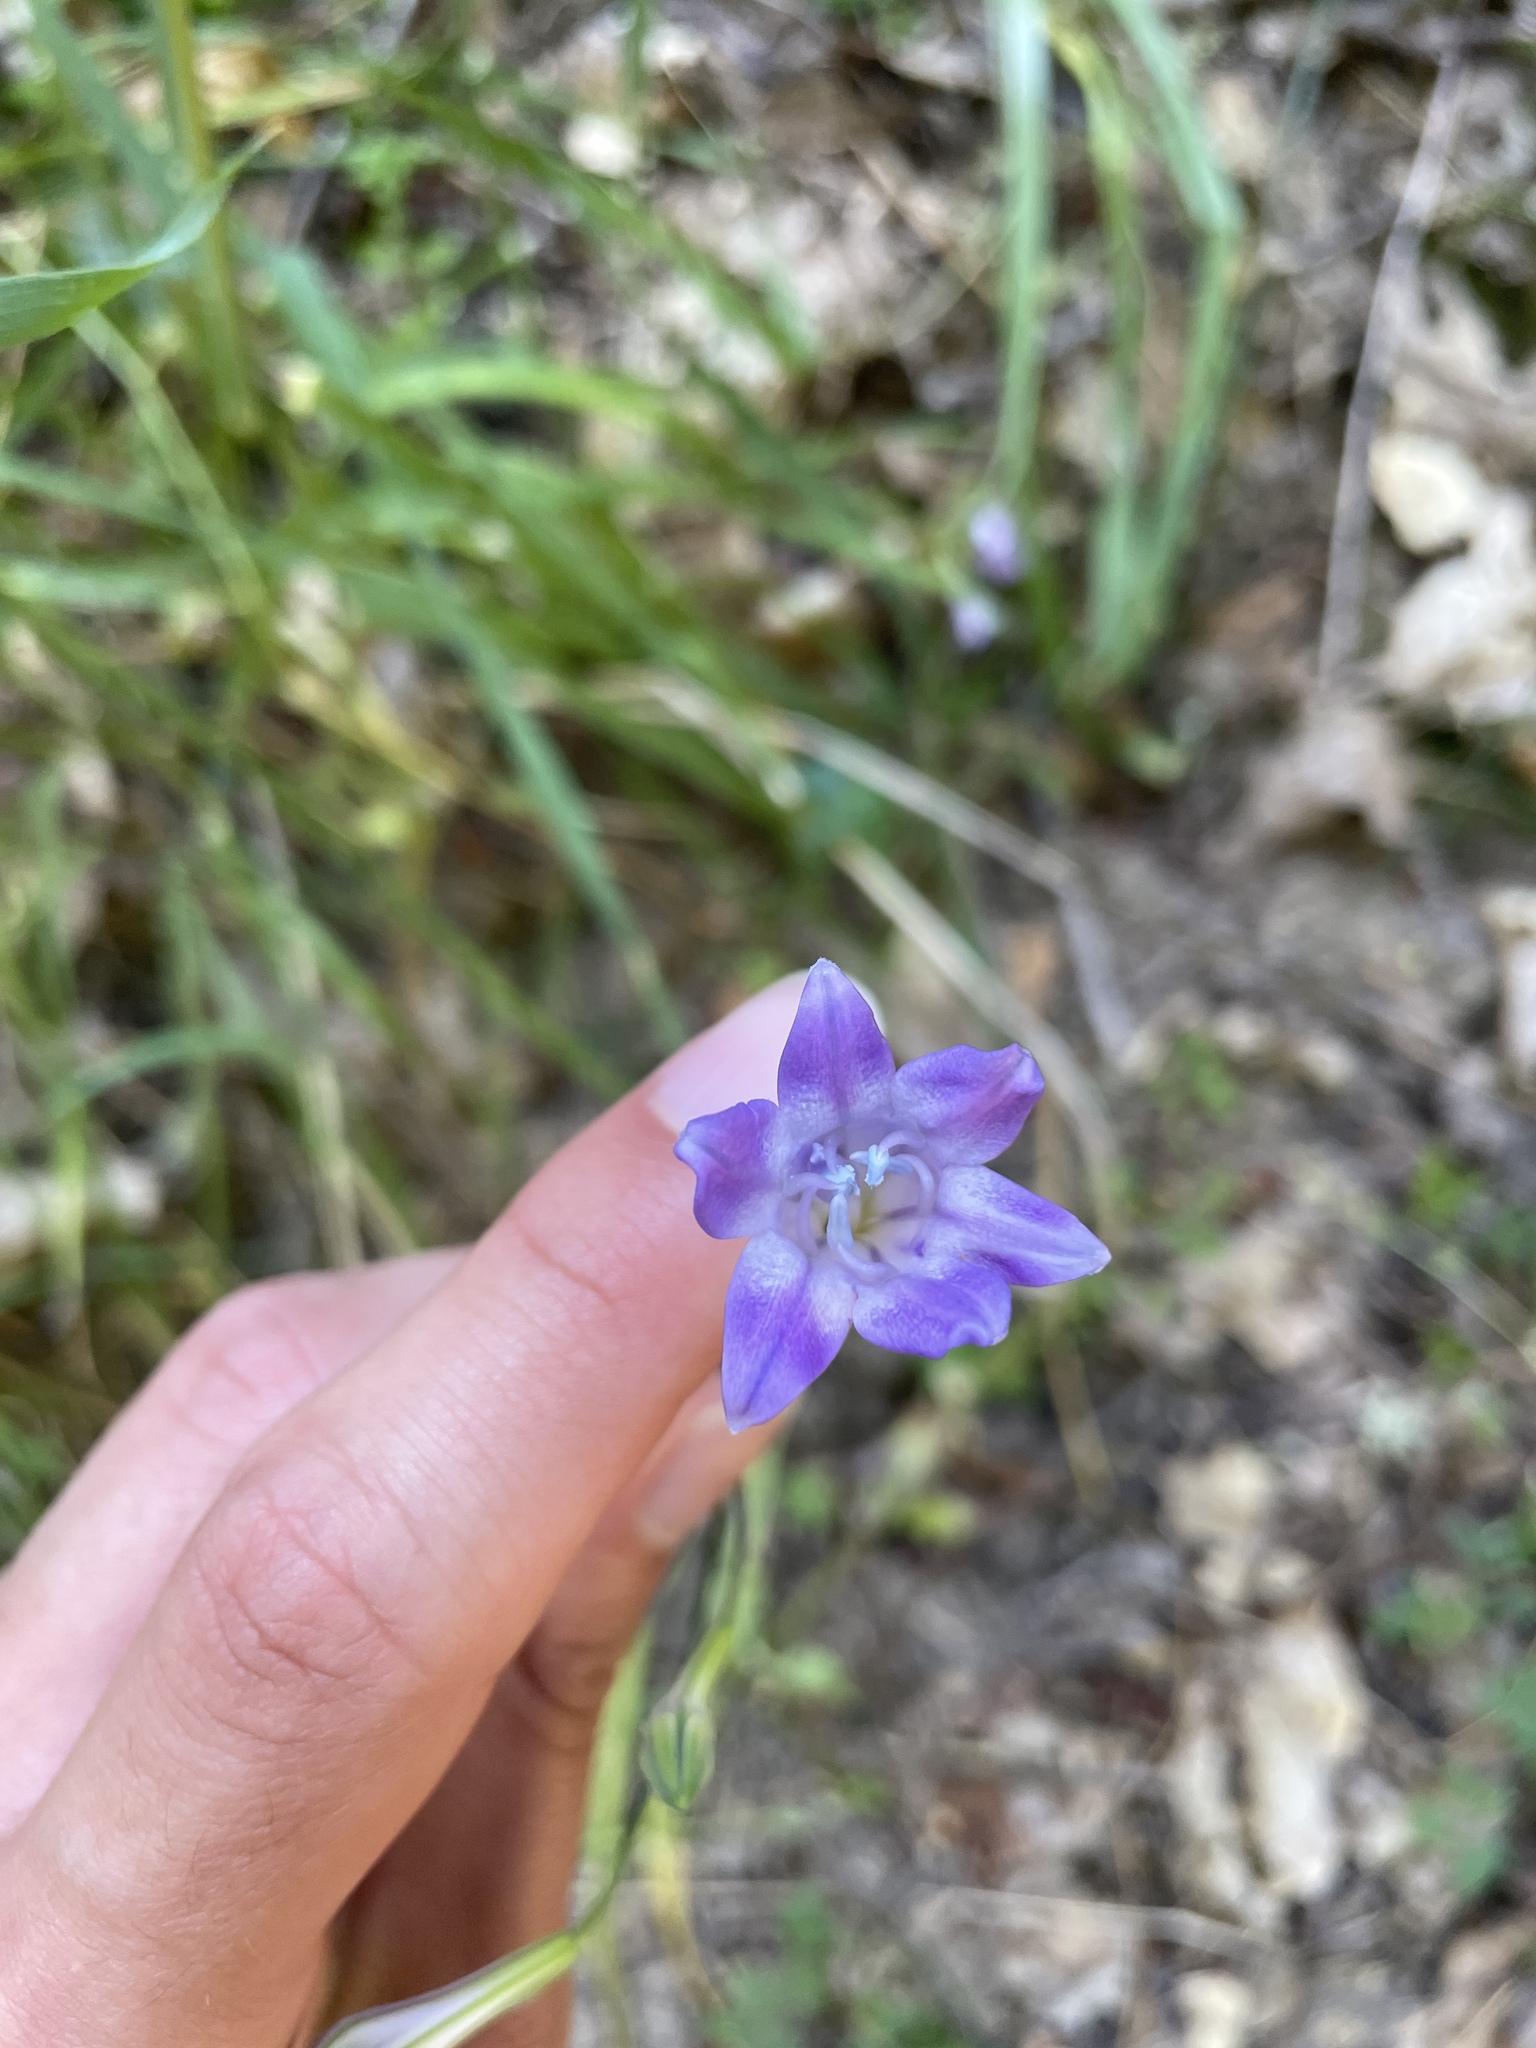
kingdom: Plantae
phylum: Tracheophyta
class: Liliopsida
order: Asparagales
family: Asparagaceae
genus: Triteleia
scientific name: Triteleia laxa
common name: Triplet-lily
